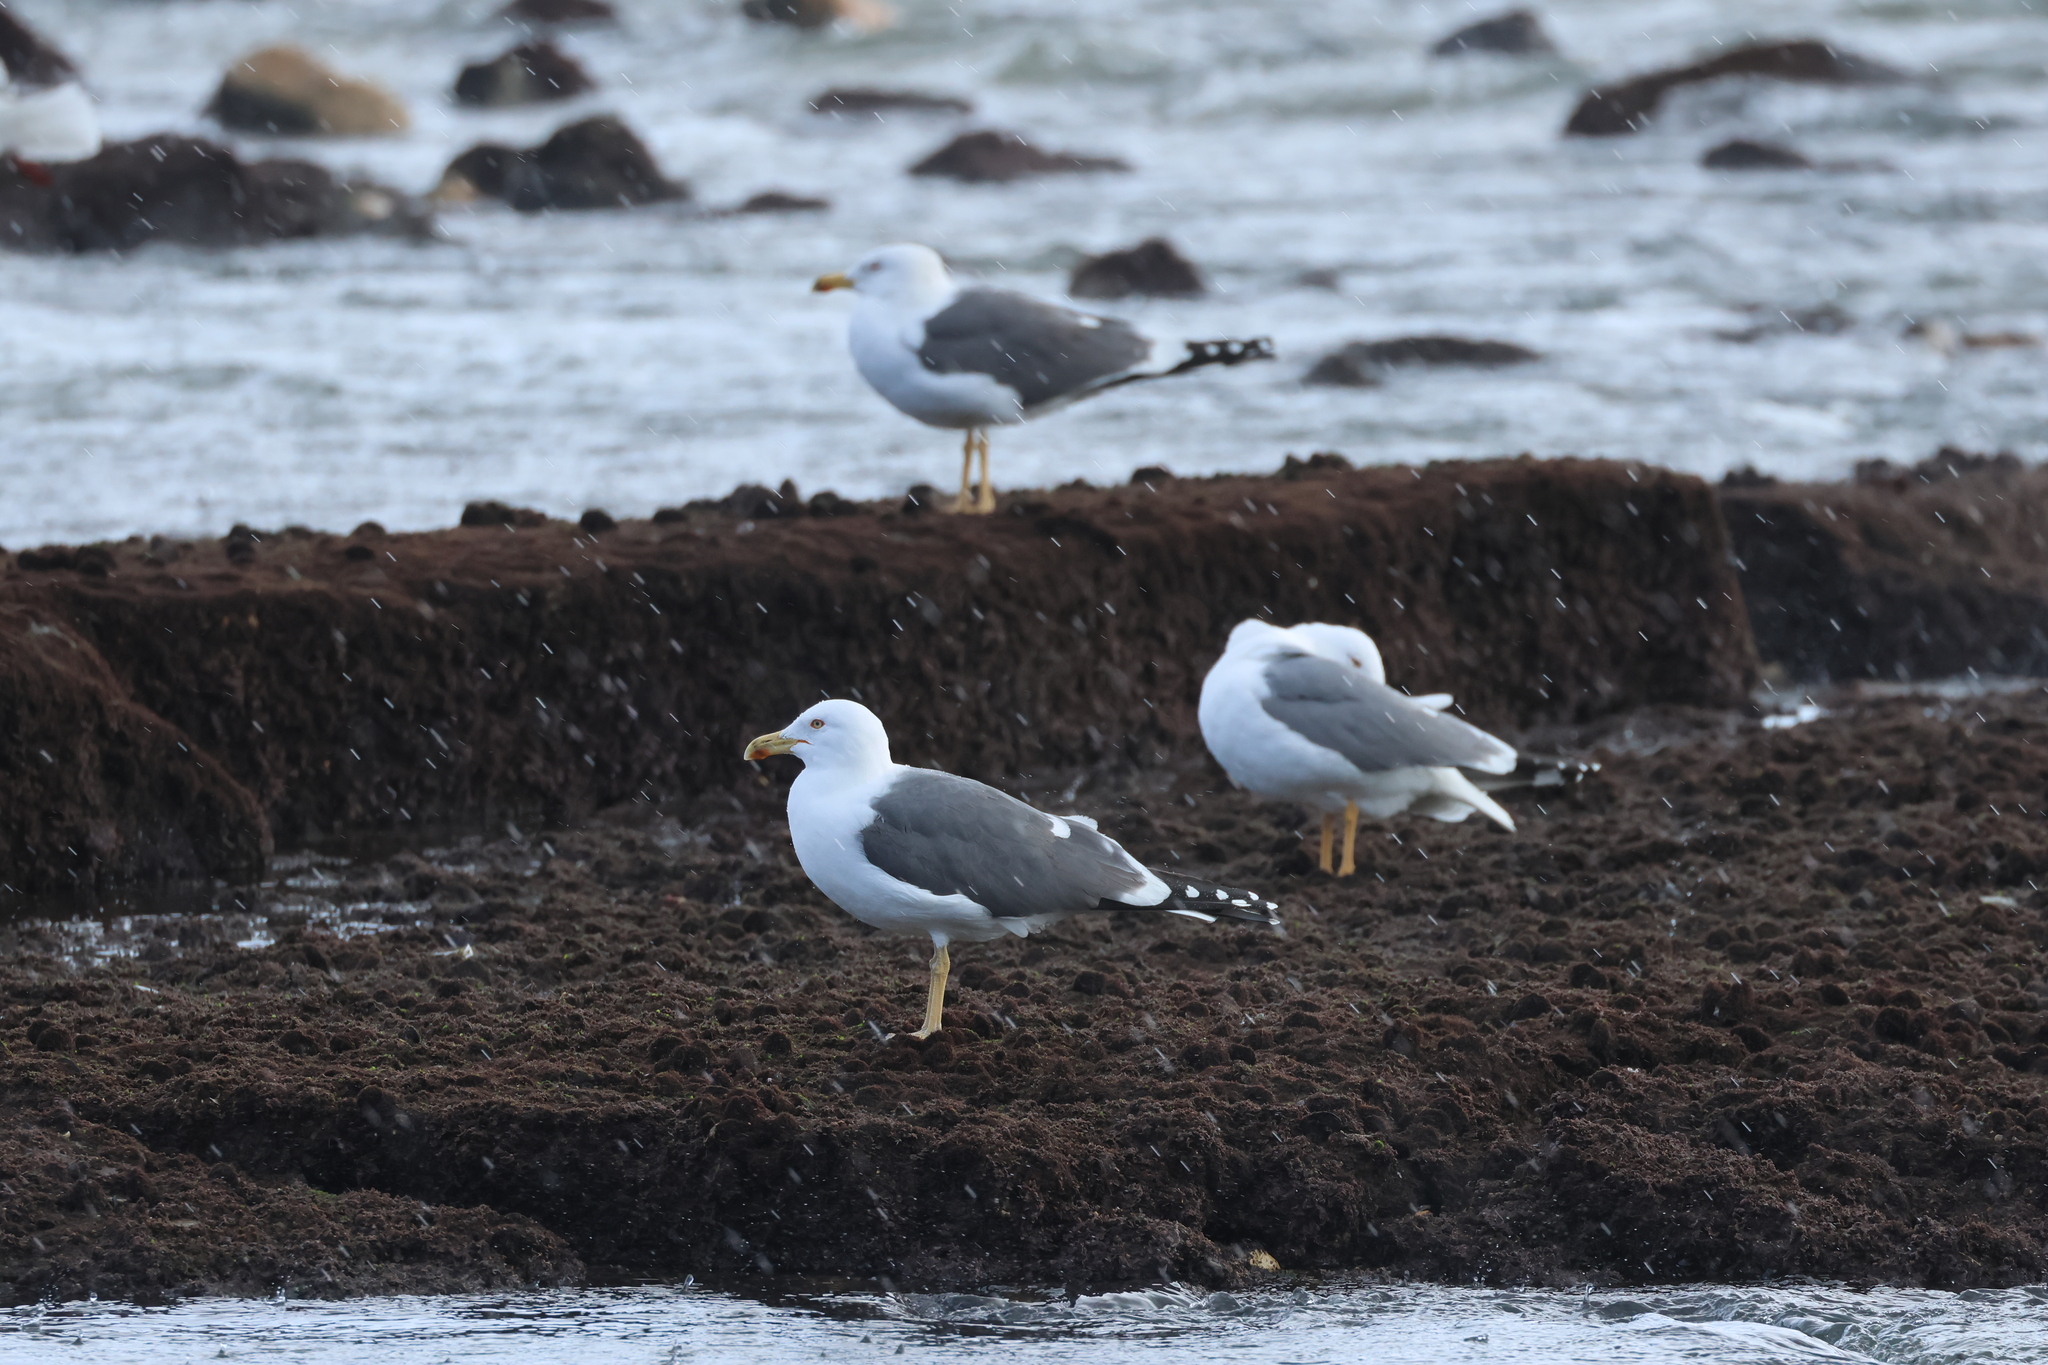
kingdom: Animalia
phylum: Chordata
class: Aves
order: Charadriiformes
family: Laridae
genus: Larus
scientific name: Larus fuscus
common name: Lesser black-backed gull
